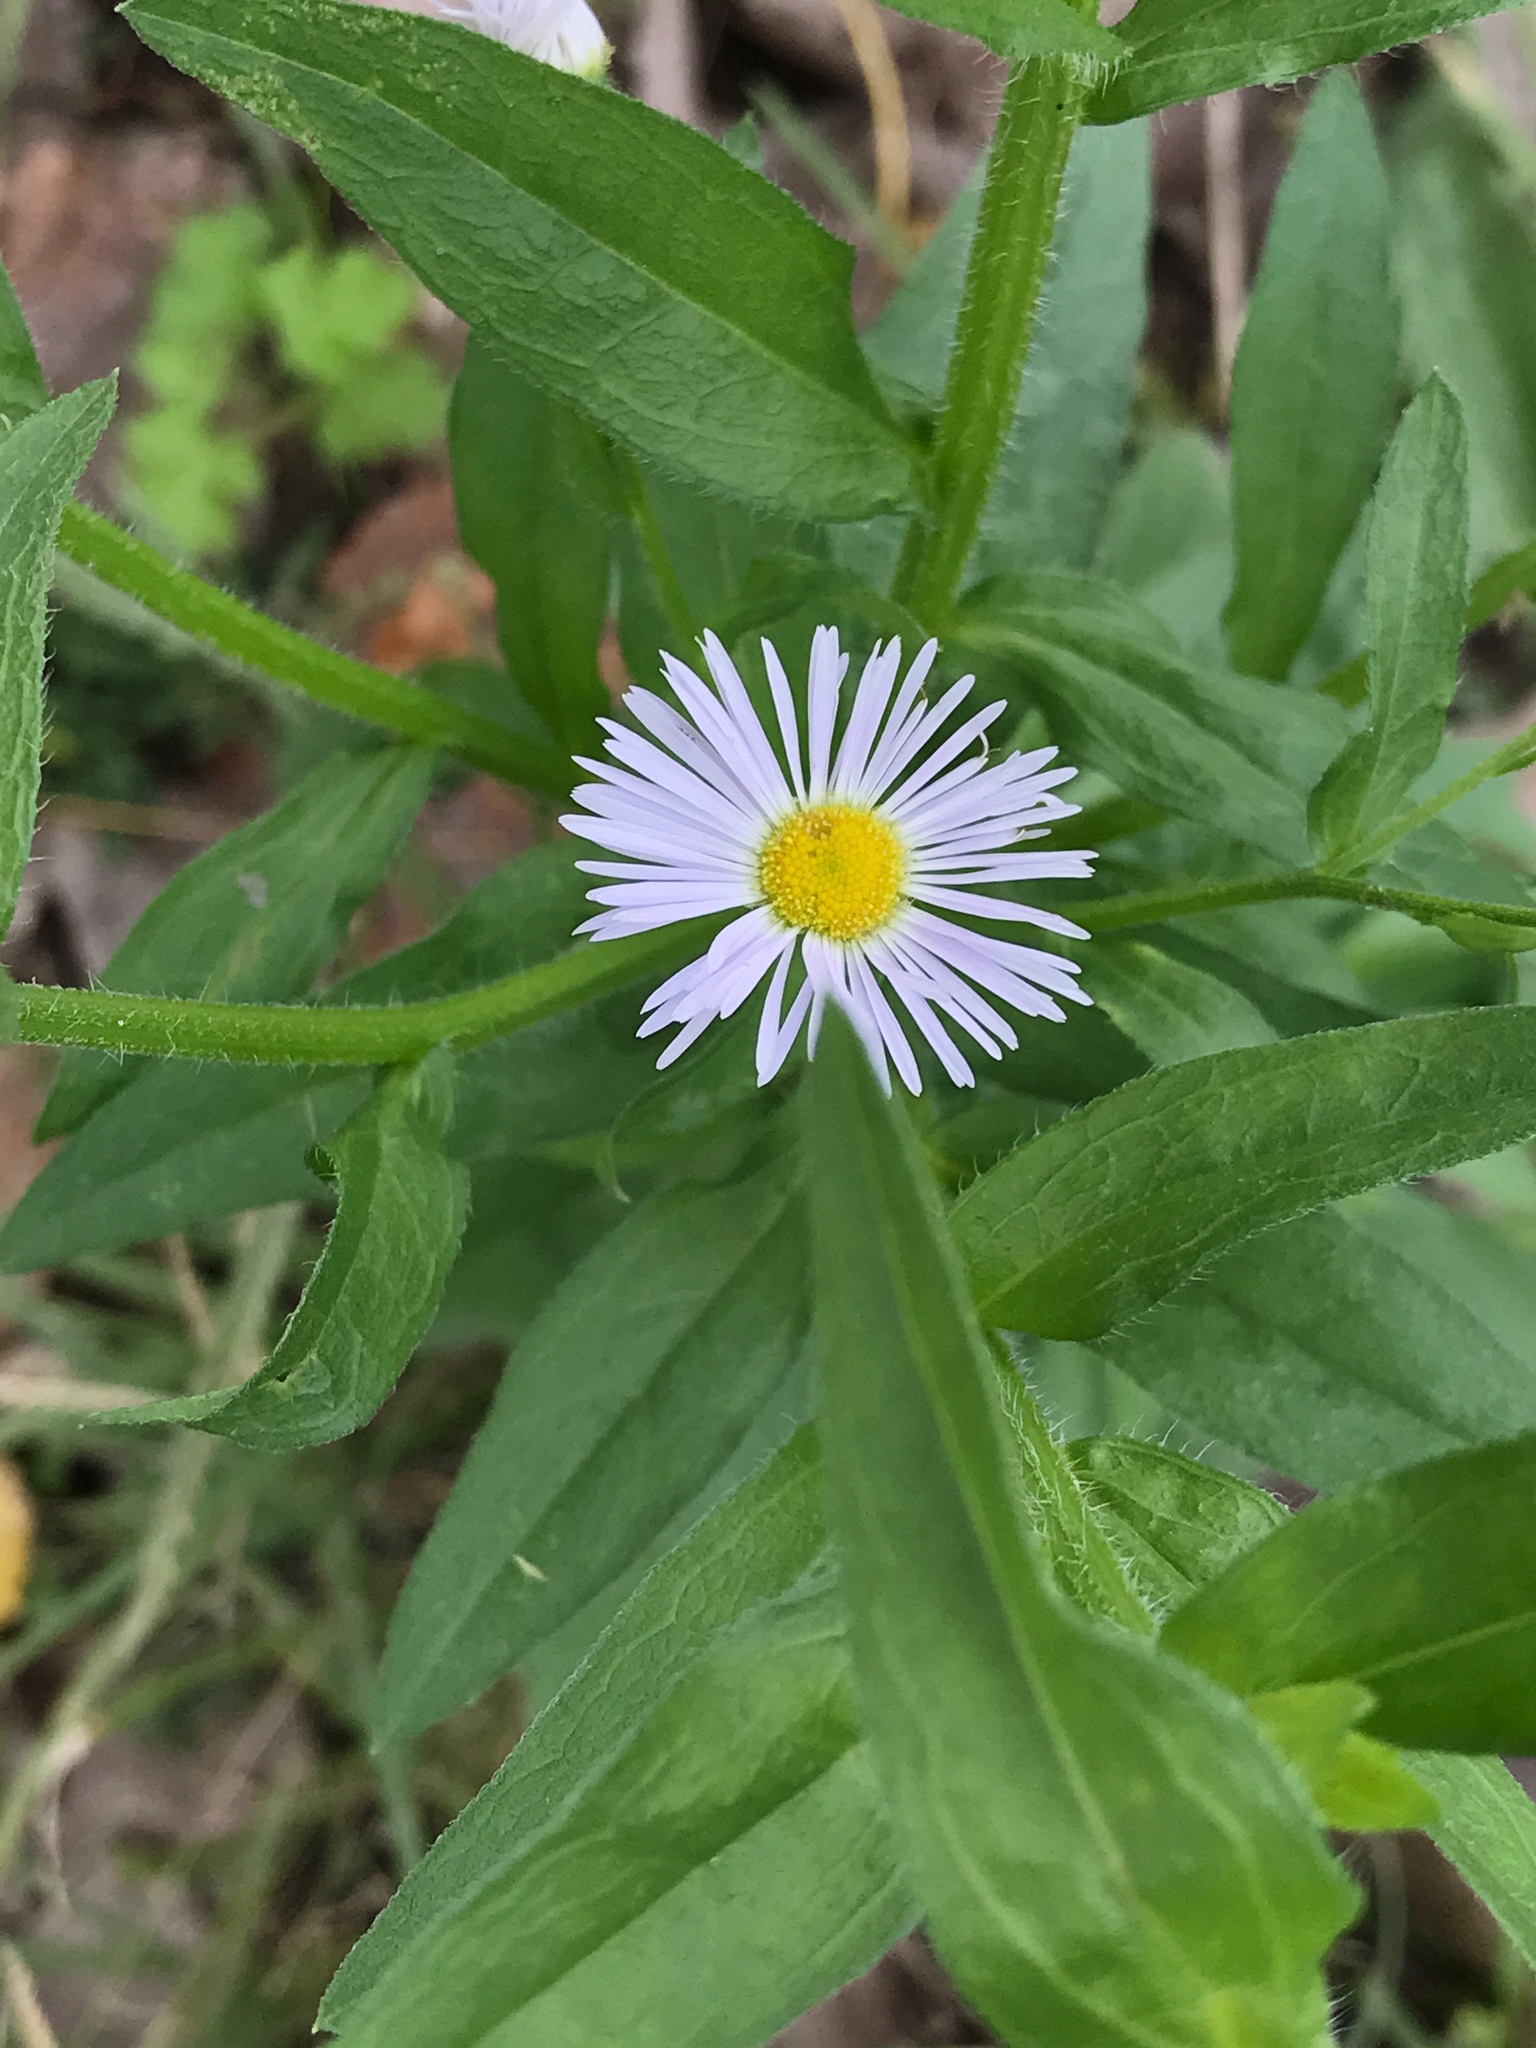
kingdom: Plantae
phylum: Tracheophyta
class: Magnoliopsida
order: Asterales
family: Asteraceae
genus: Erigeron
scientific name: Erigeron annuus
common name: Tall fleabane
